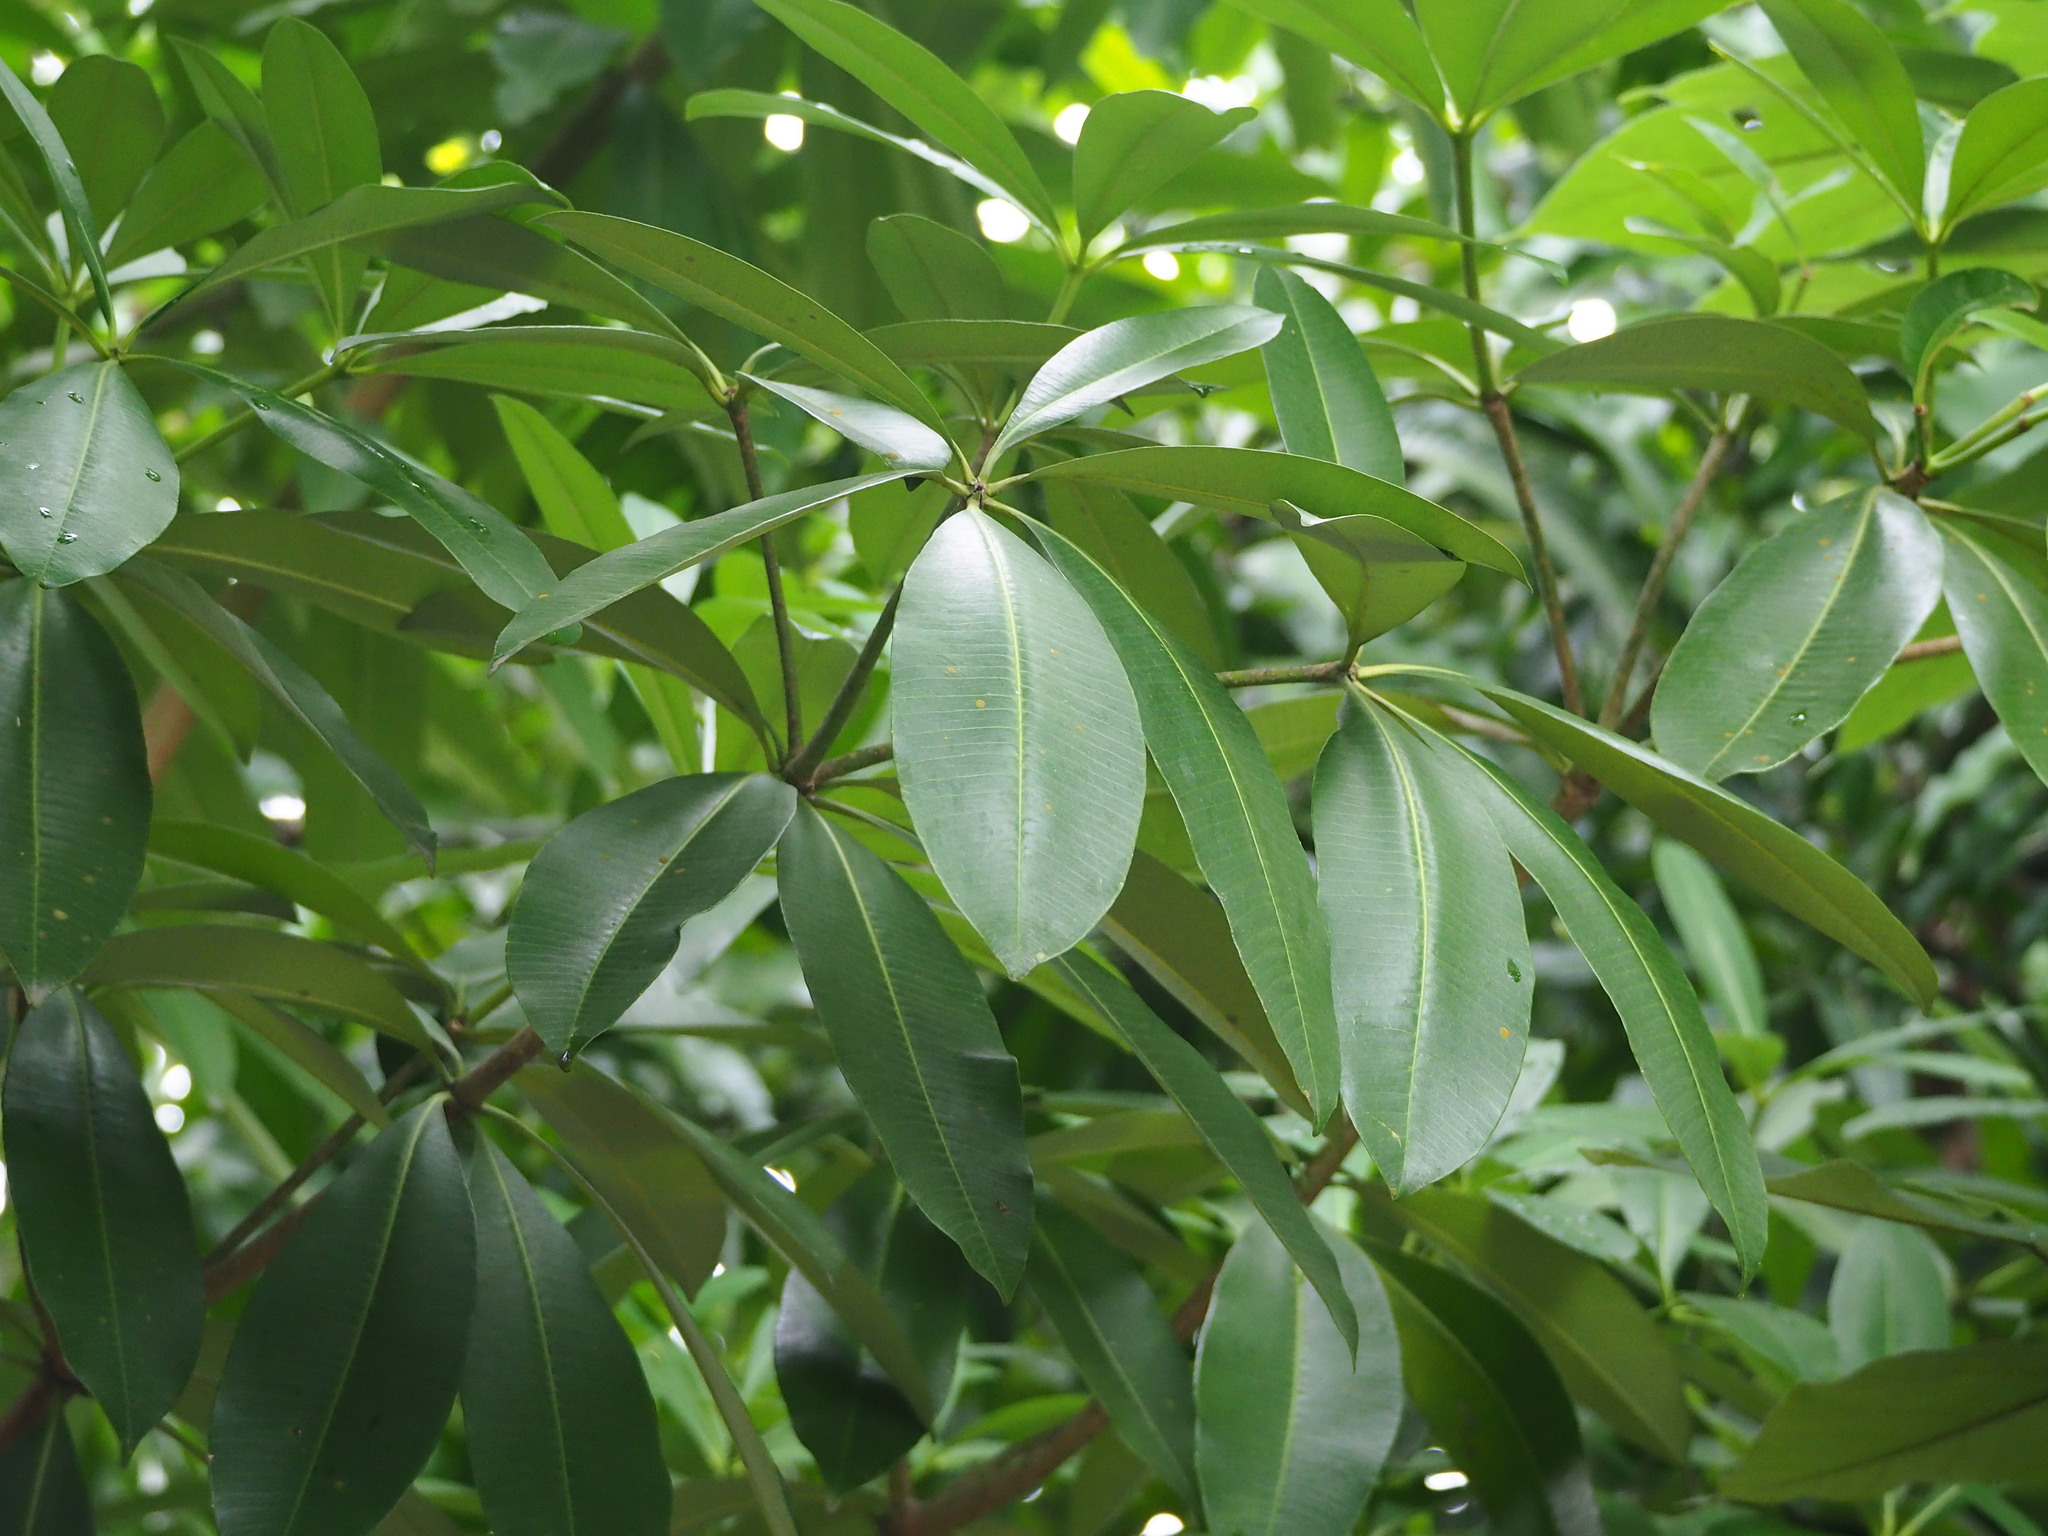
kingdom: Plantae
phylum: Tracheophyta
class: Magnoliopsida
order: Gentianales
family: Apocynaceae
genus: Alstonia
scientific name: Alstonia scholaris
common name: White cheesewood
